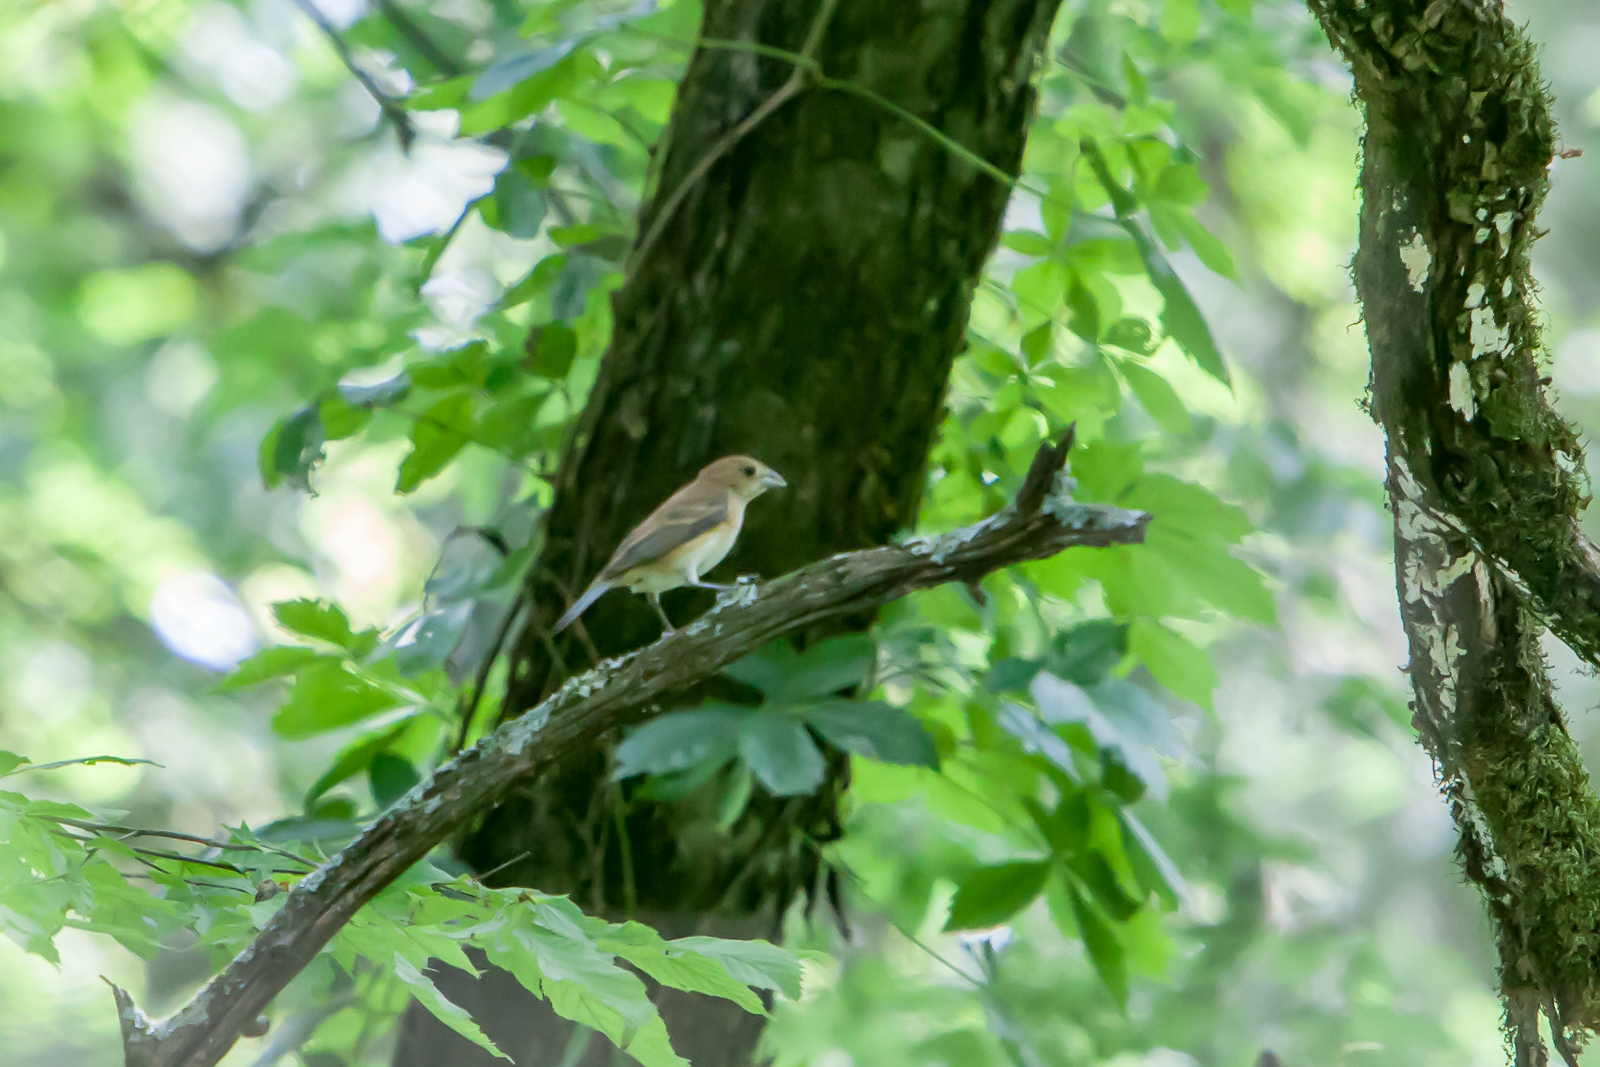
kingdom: Animalia
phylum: Chordata
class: Aves
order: Passeriformes
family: Cardinalidae
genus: Passerina
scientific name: Passerina cyanea
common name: Indigo bunting
